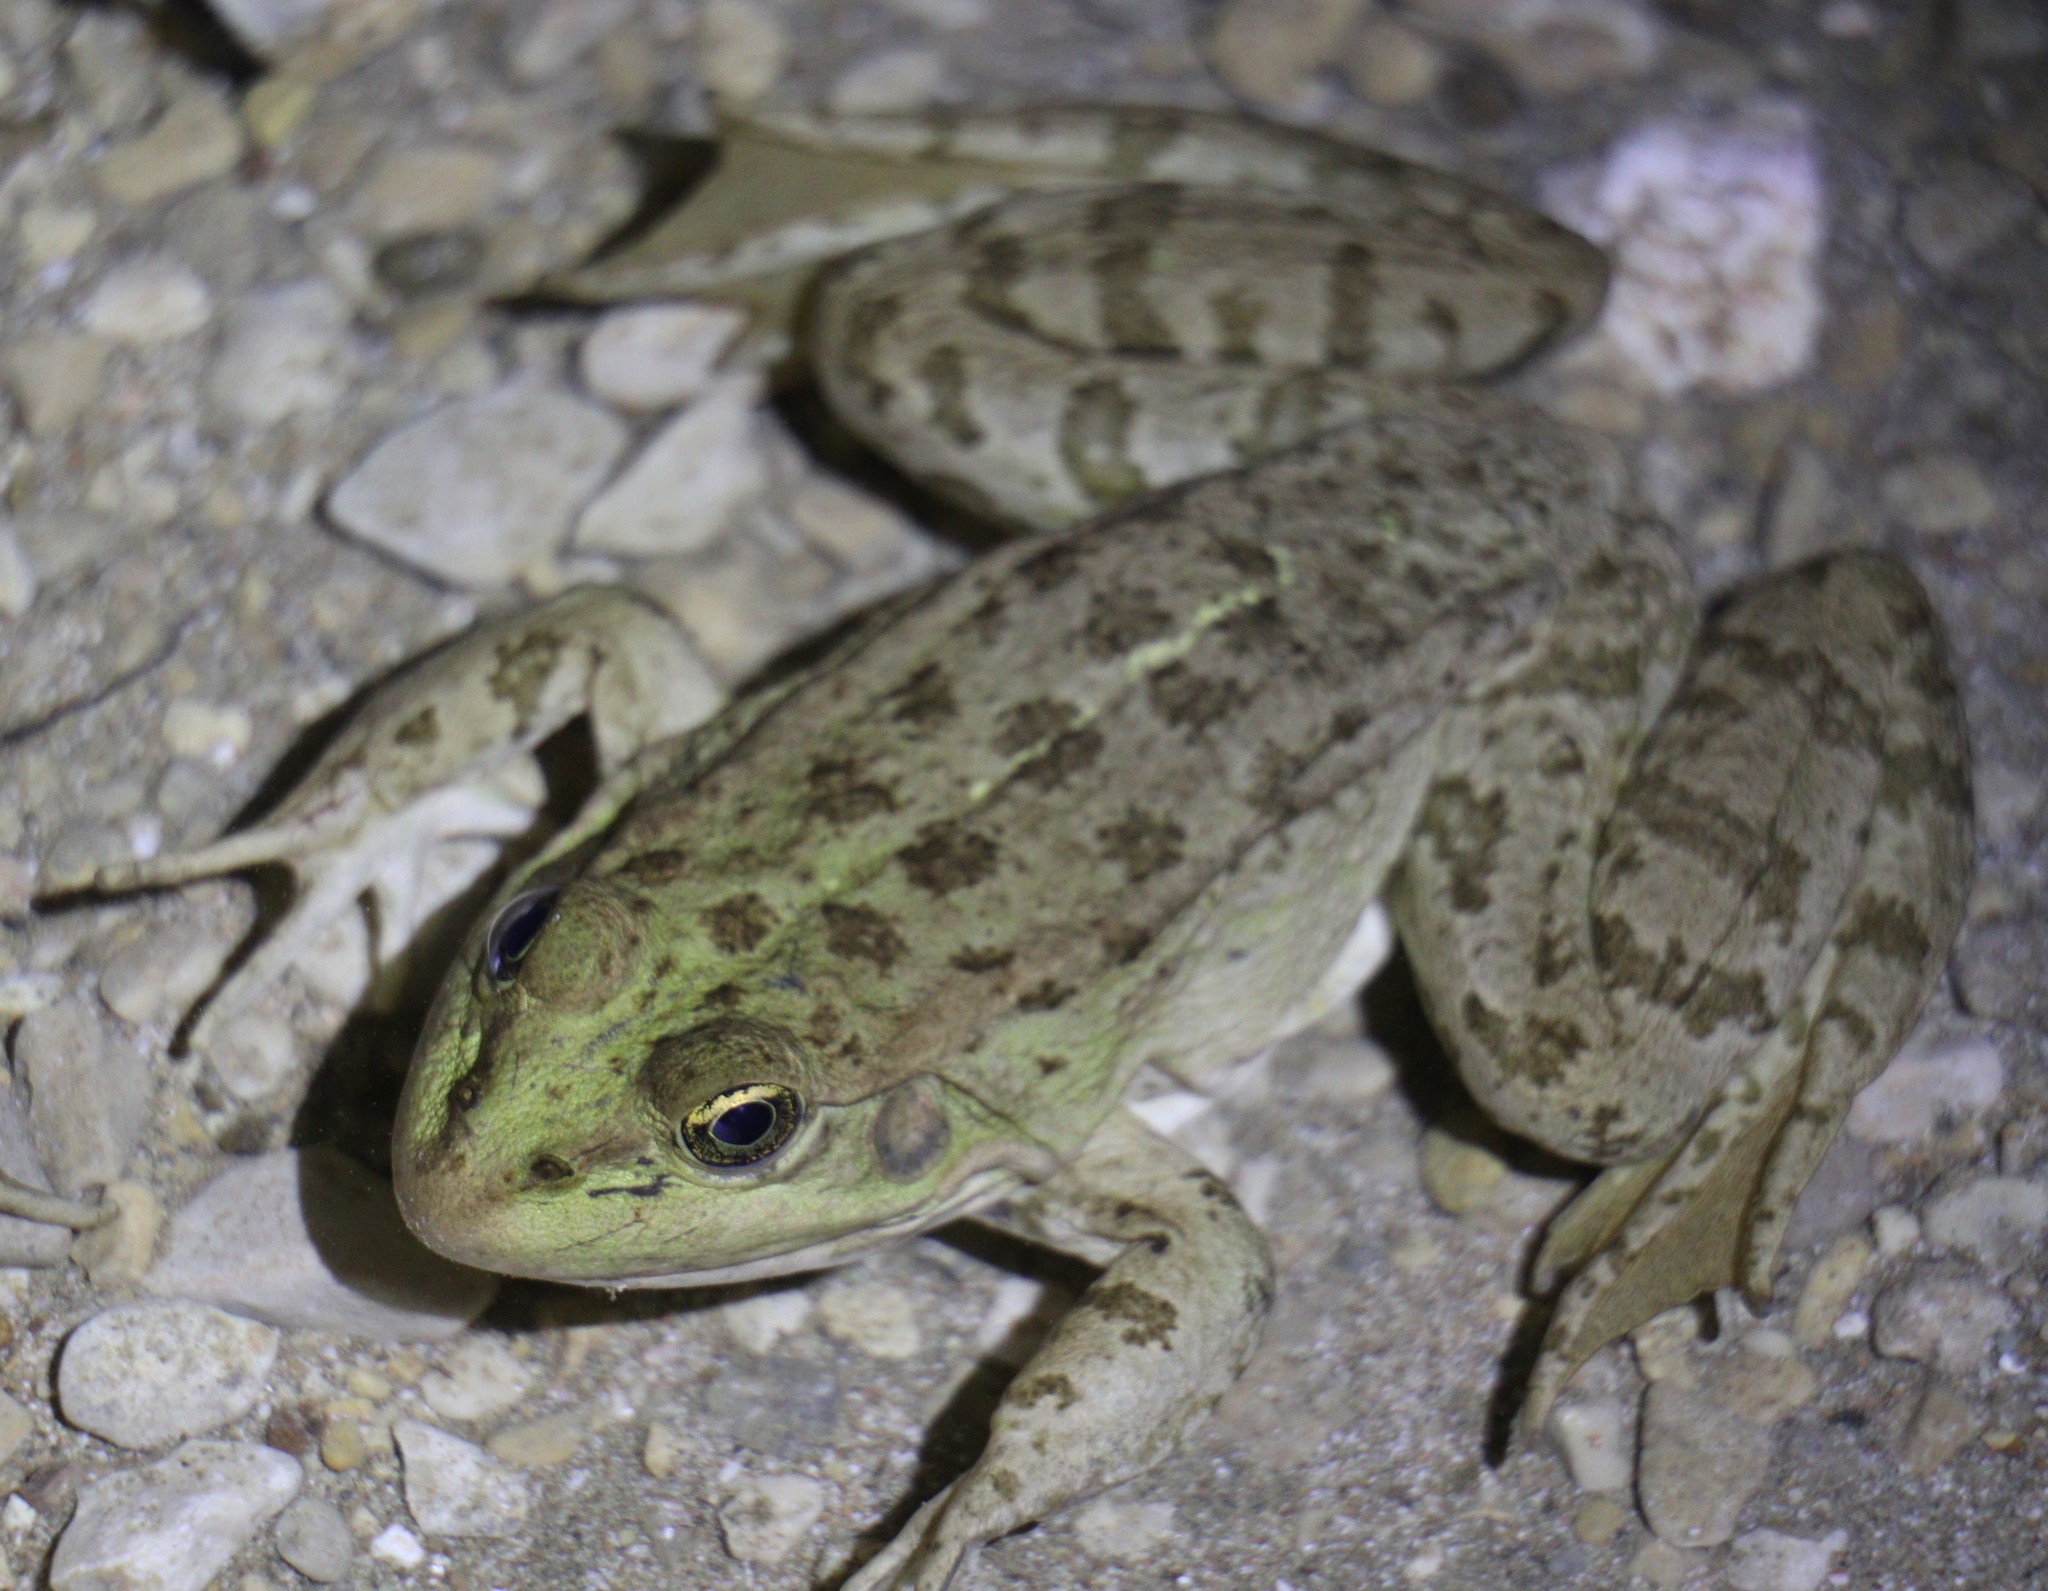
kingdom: Animalia
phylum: Chordata
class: Amphibia
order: Anura
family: Ranidae
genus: Pelophylax
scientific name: Pelophylax ridibundus
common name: Marsh frog
